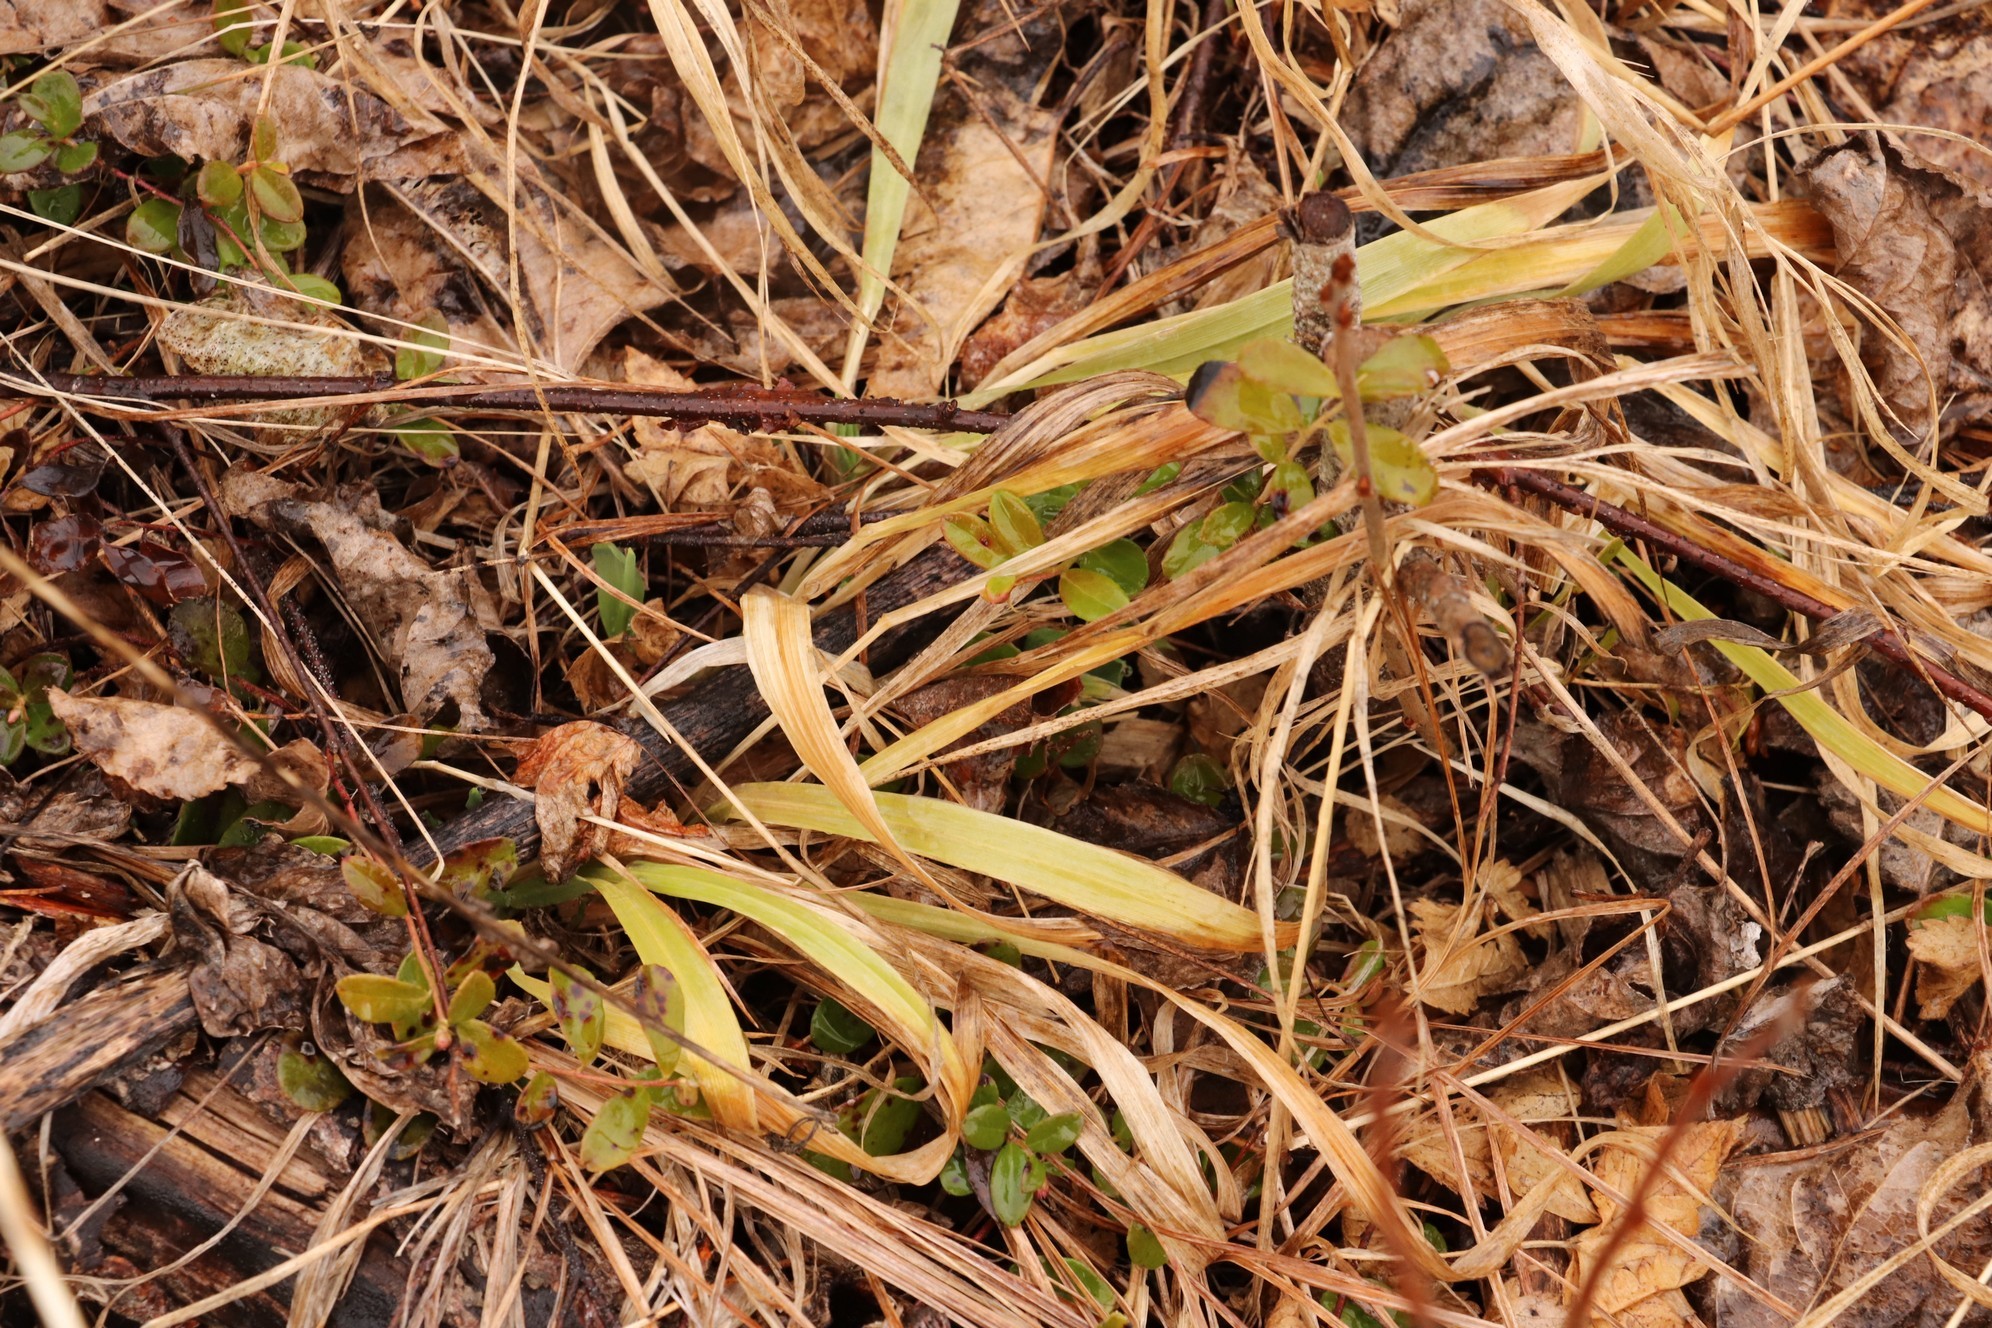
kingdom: Plantae
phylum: Tracheophyta
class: Liliopsida
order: Poales
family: Juncaceae
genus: Luzula
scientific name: Luzula pilosa
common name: Hairy wood-rush
